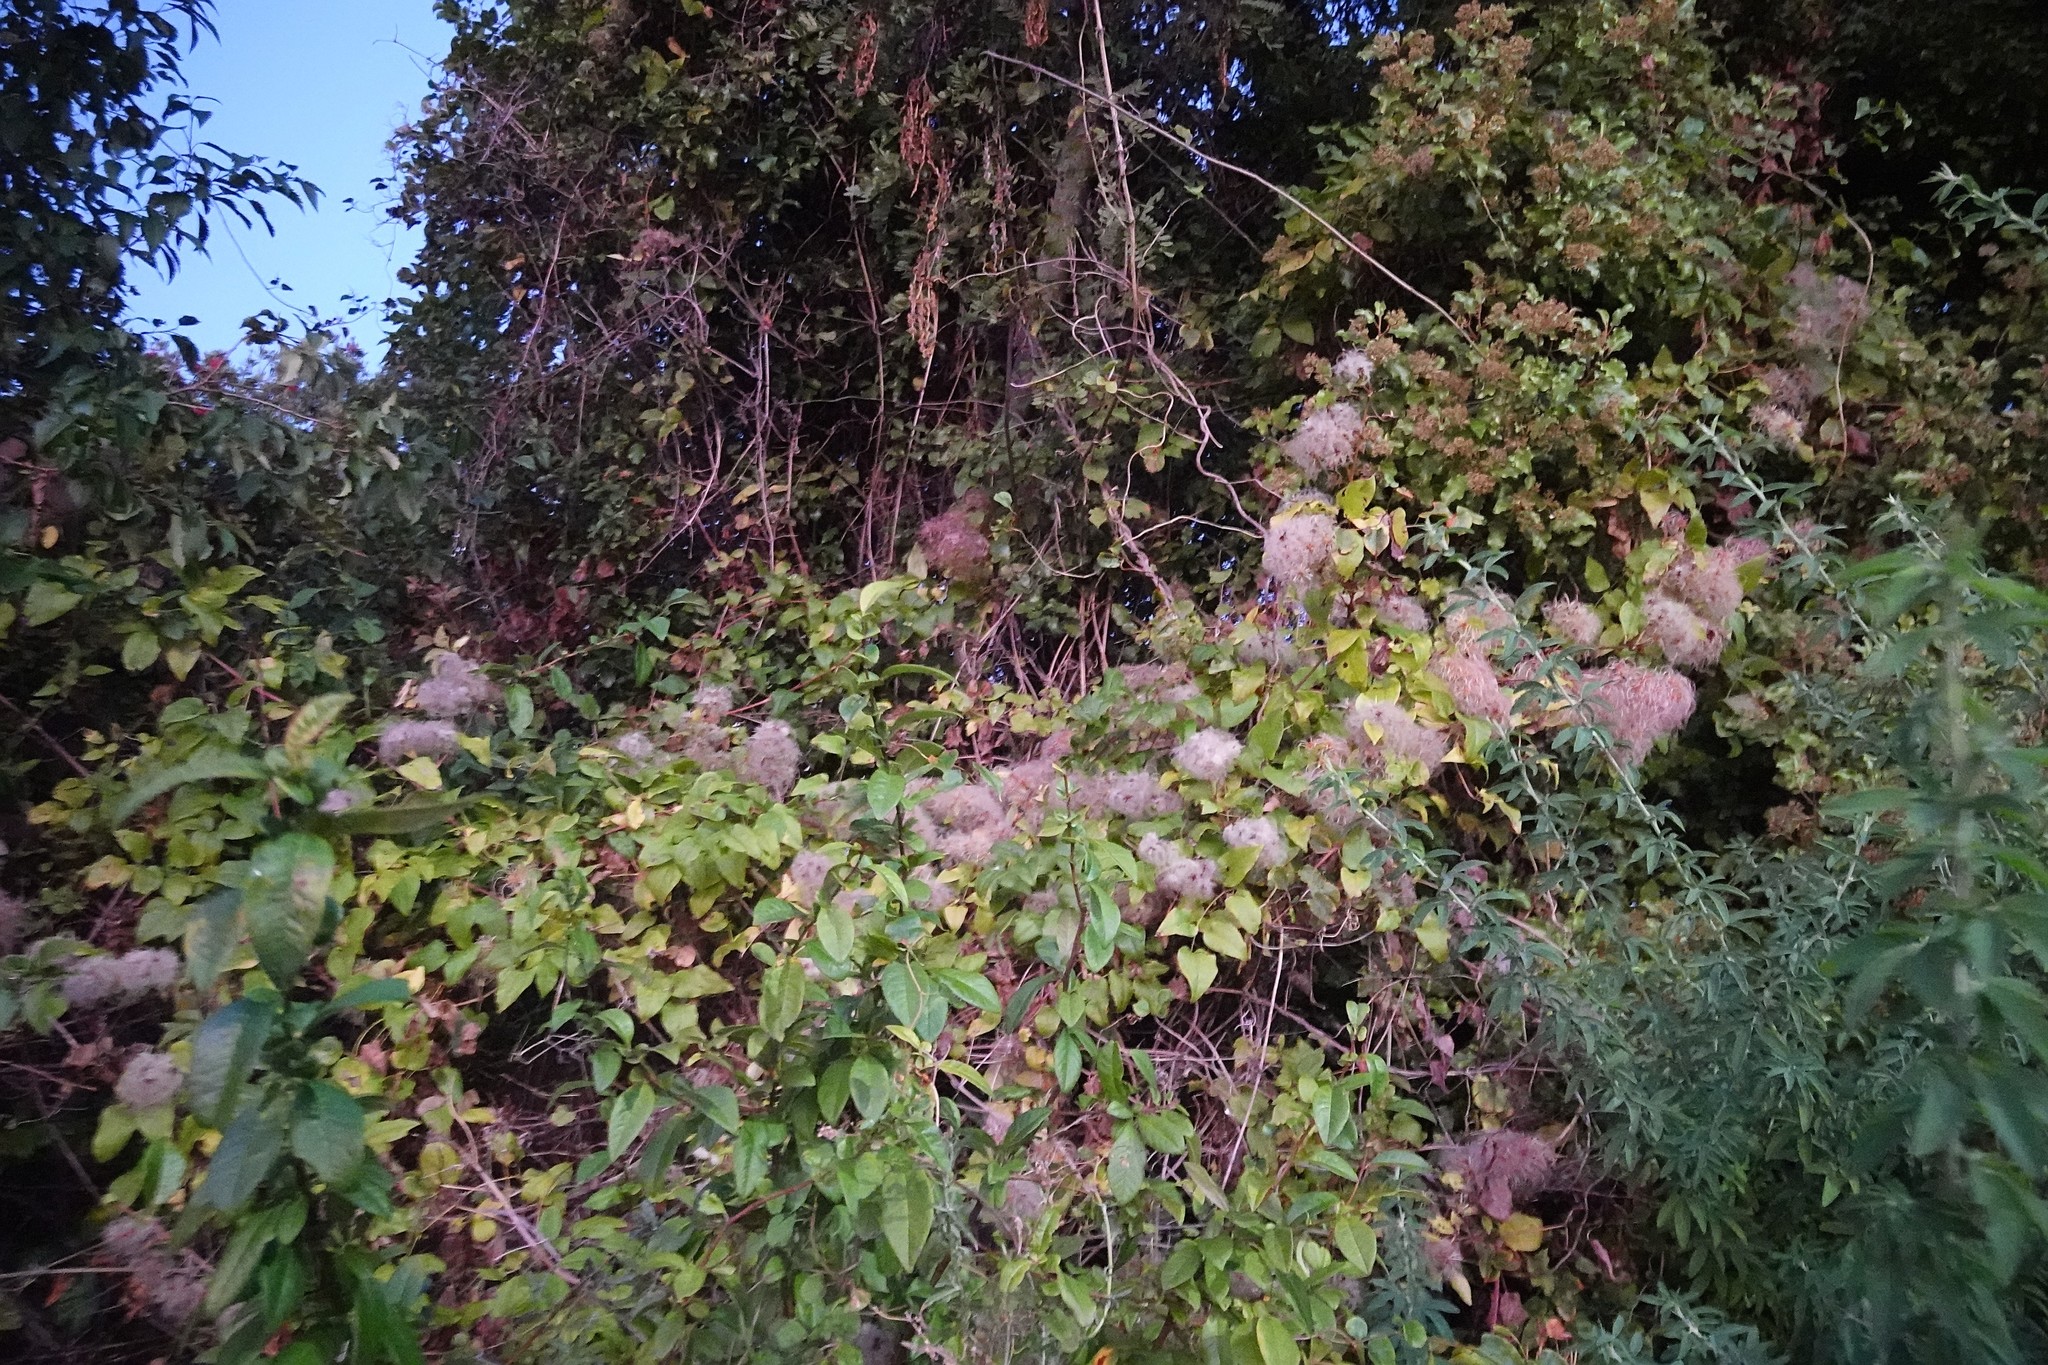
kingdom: Plantae
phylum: Tracheophyta
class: Magnoliopsida
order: Fabales
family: Fabaceae
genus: Chamaecytisus
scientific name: Chamaecytisus prolifer
